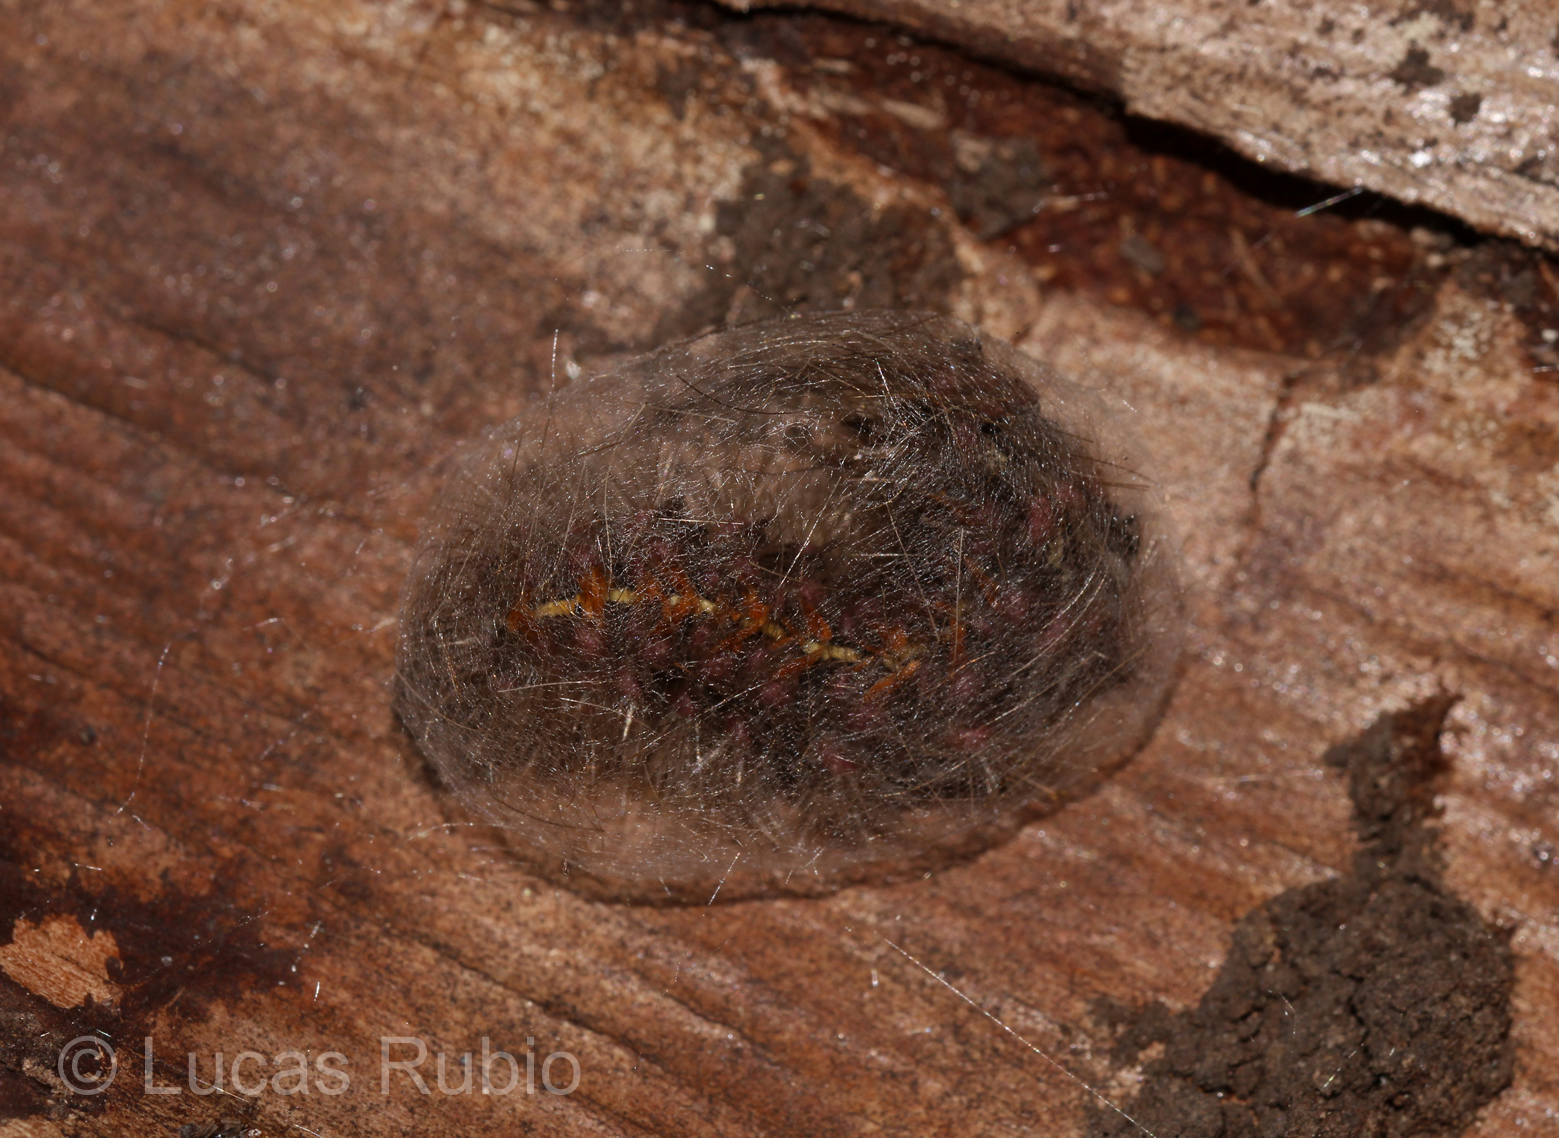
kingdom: Animalia
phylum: Arthropoda
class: Insecta
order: Lepidoptera
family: Erebidae
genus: Paracles
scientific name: Paracles fusca
